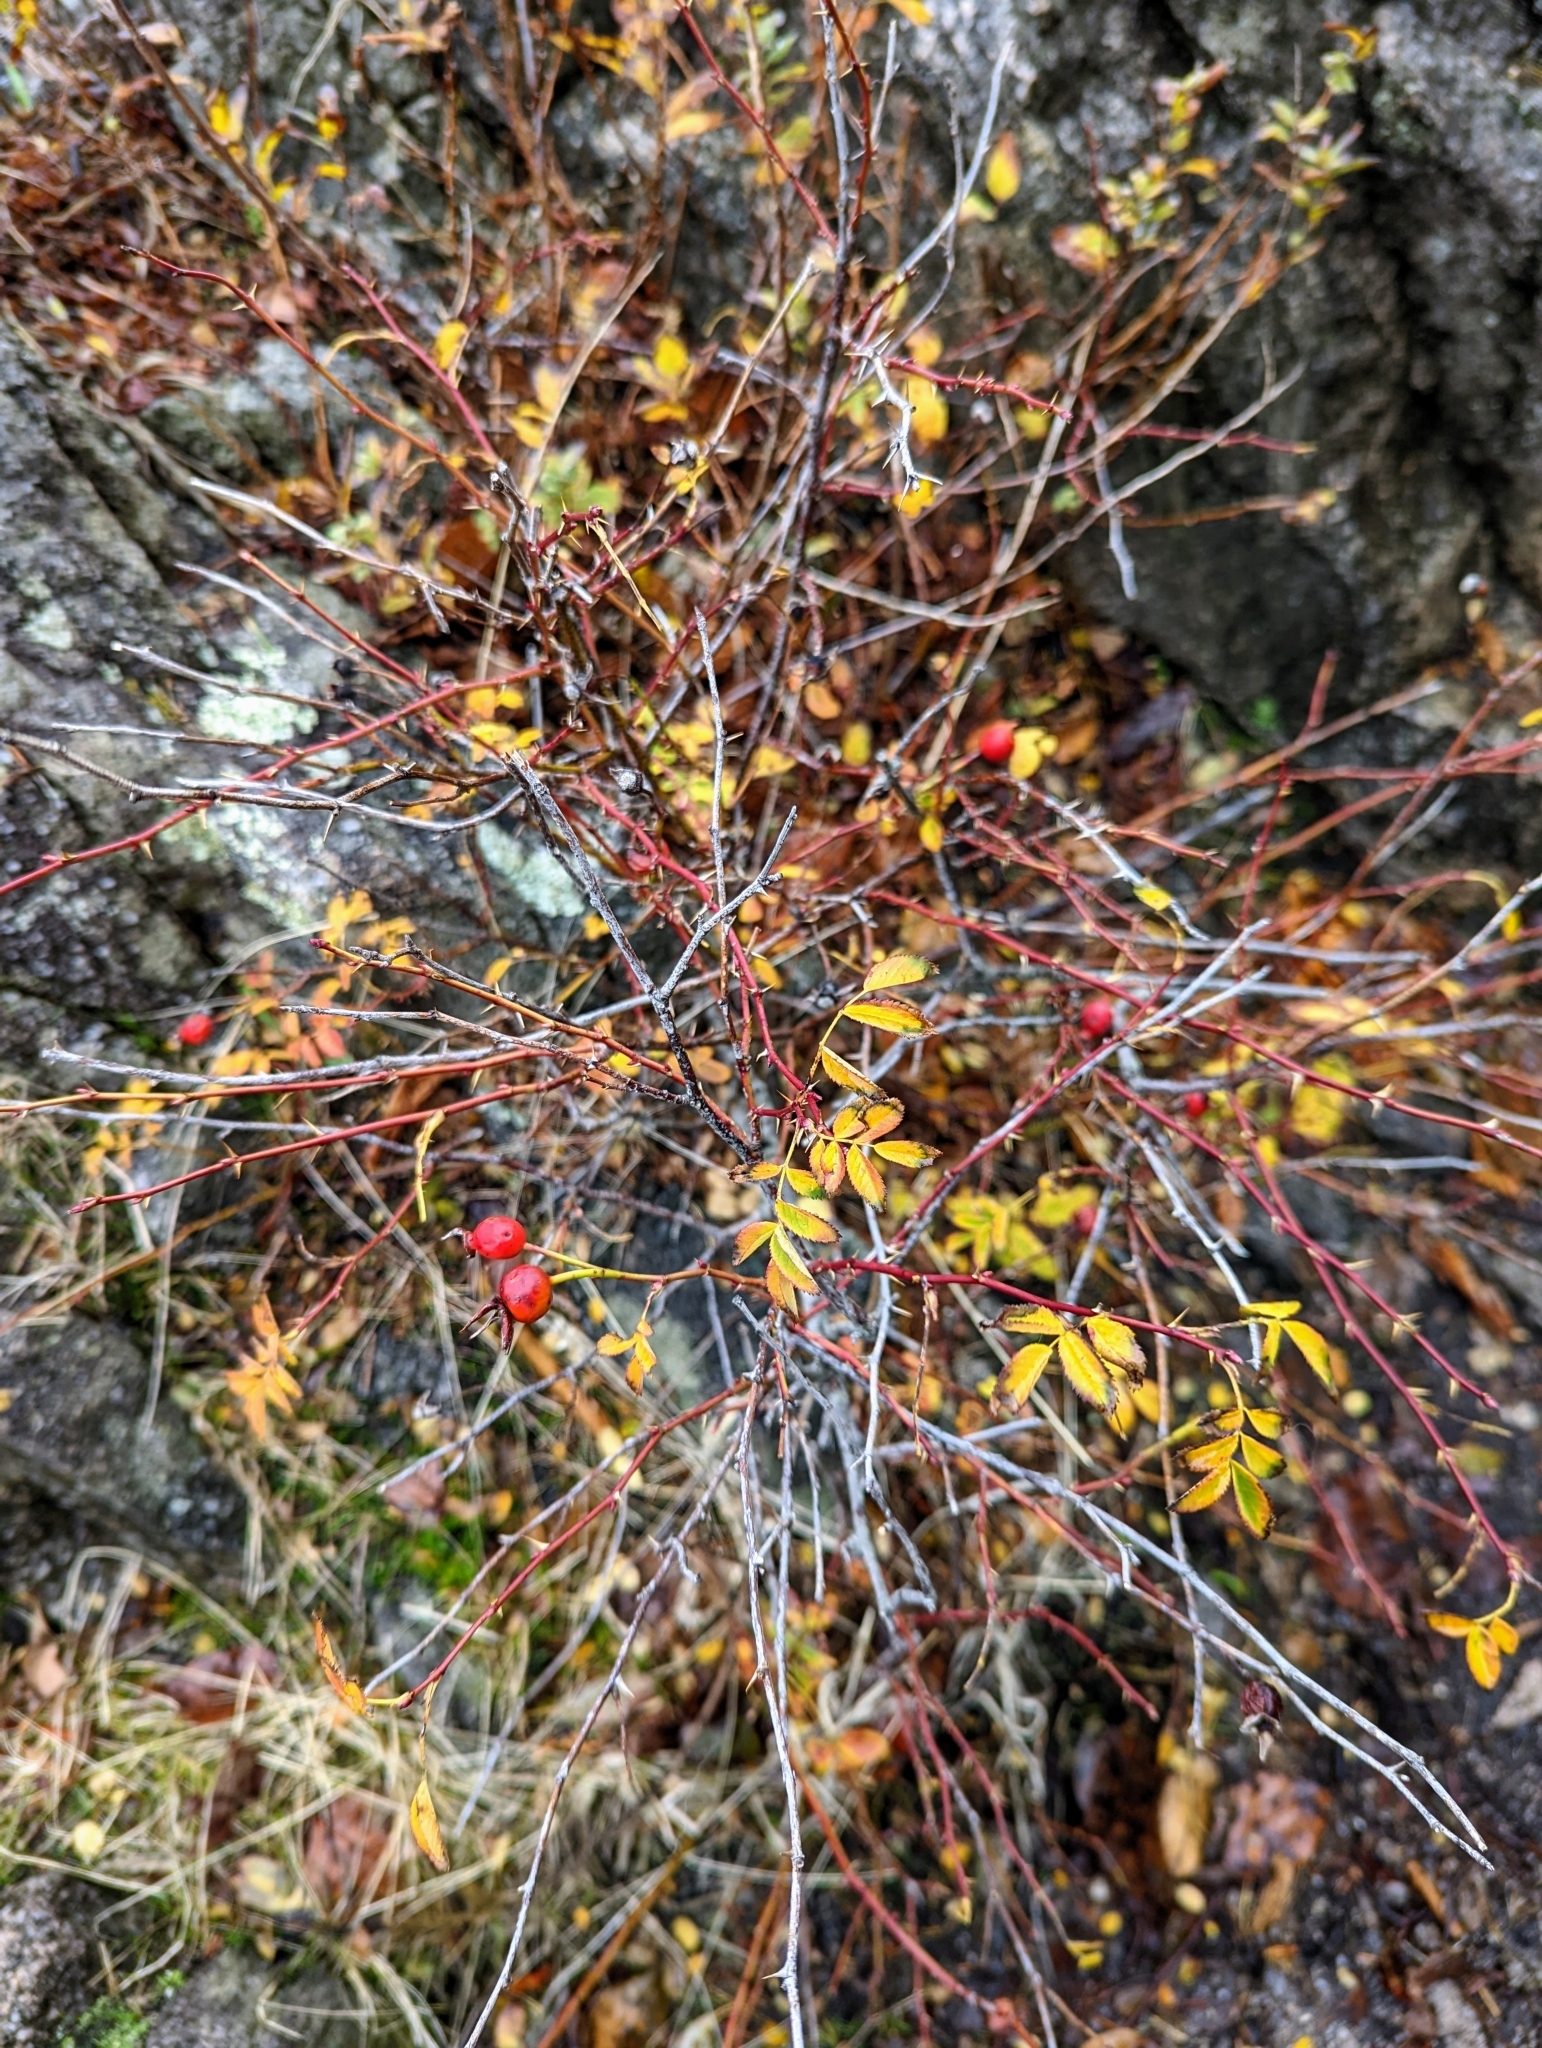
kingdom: Plantae
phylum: Tracheophyta
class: Magnoliopsida
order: Rosales
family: Rosaceae
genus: Rosa
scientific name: Rosa nutkana
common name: Nootka rose
